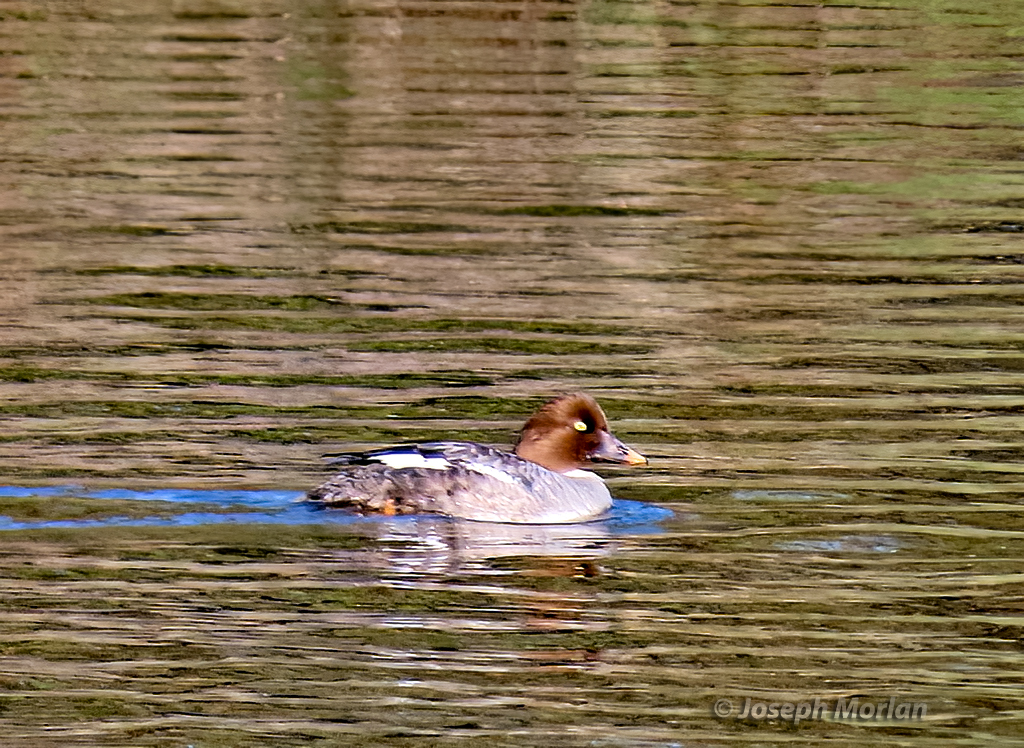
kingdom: Animalia
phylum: Chordata
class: Aves
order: Anseriformes
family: Anatidae
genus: Bucephala
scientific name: Bucephala clangula
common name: Common goldeneye
